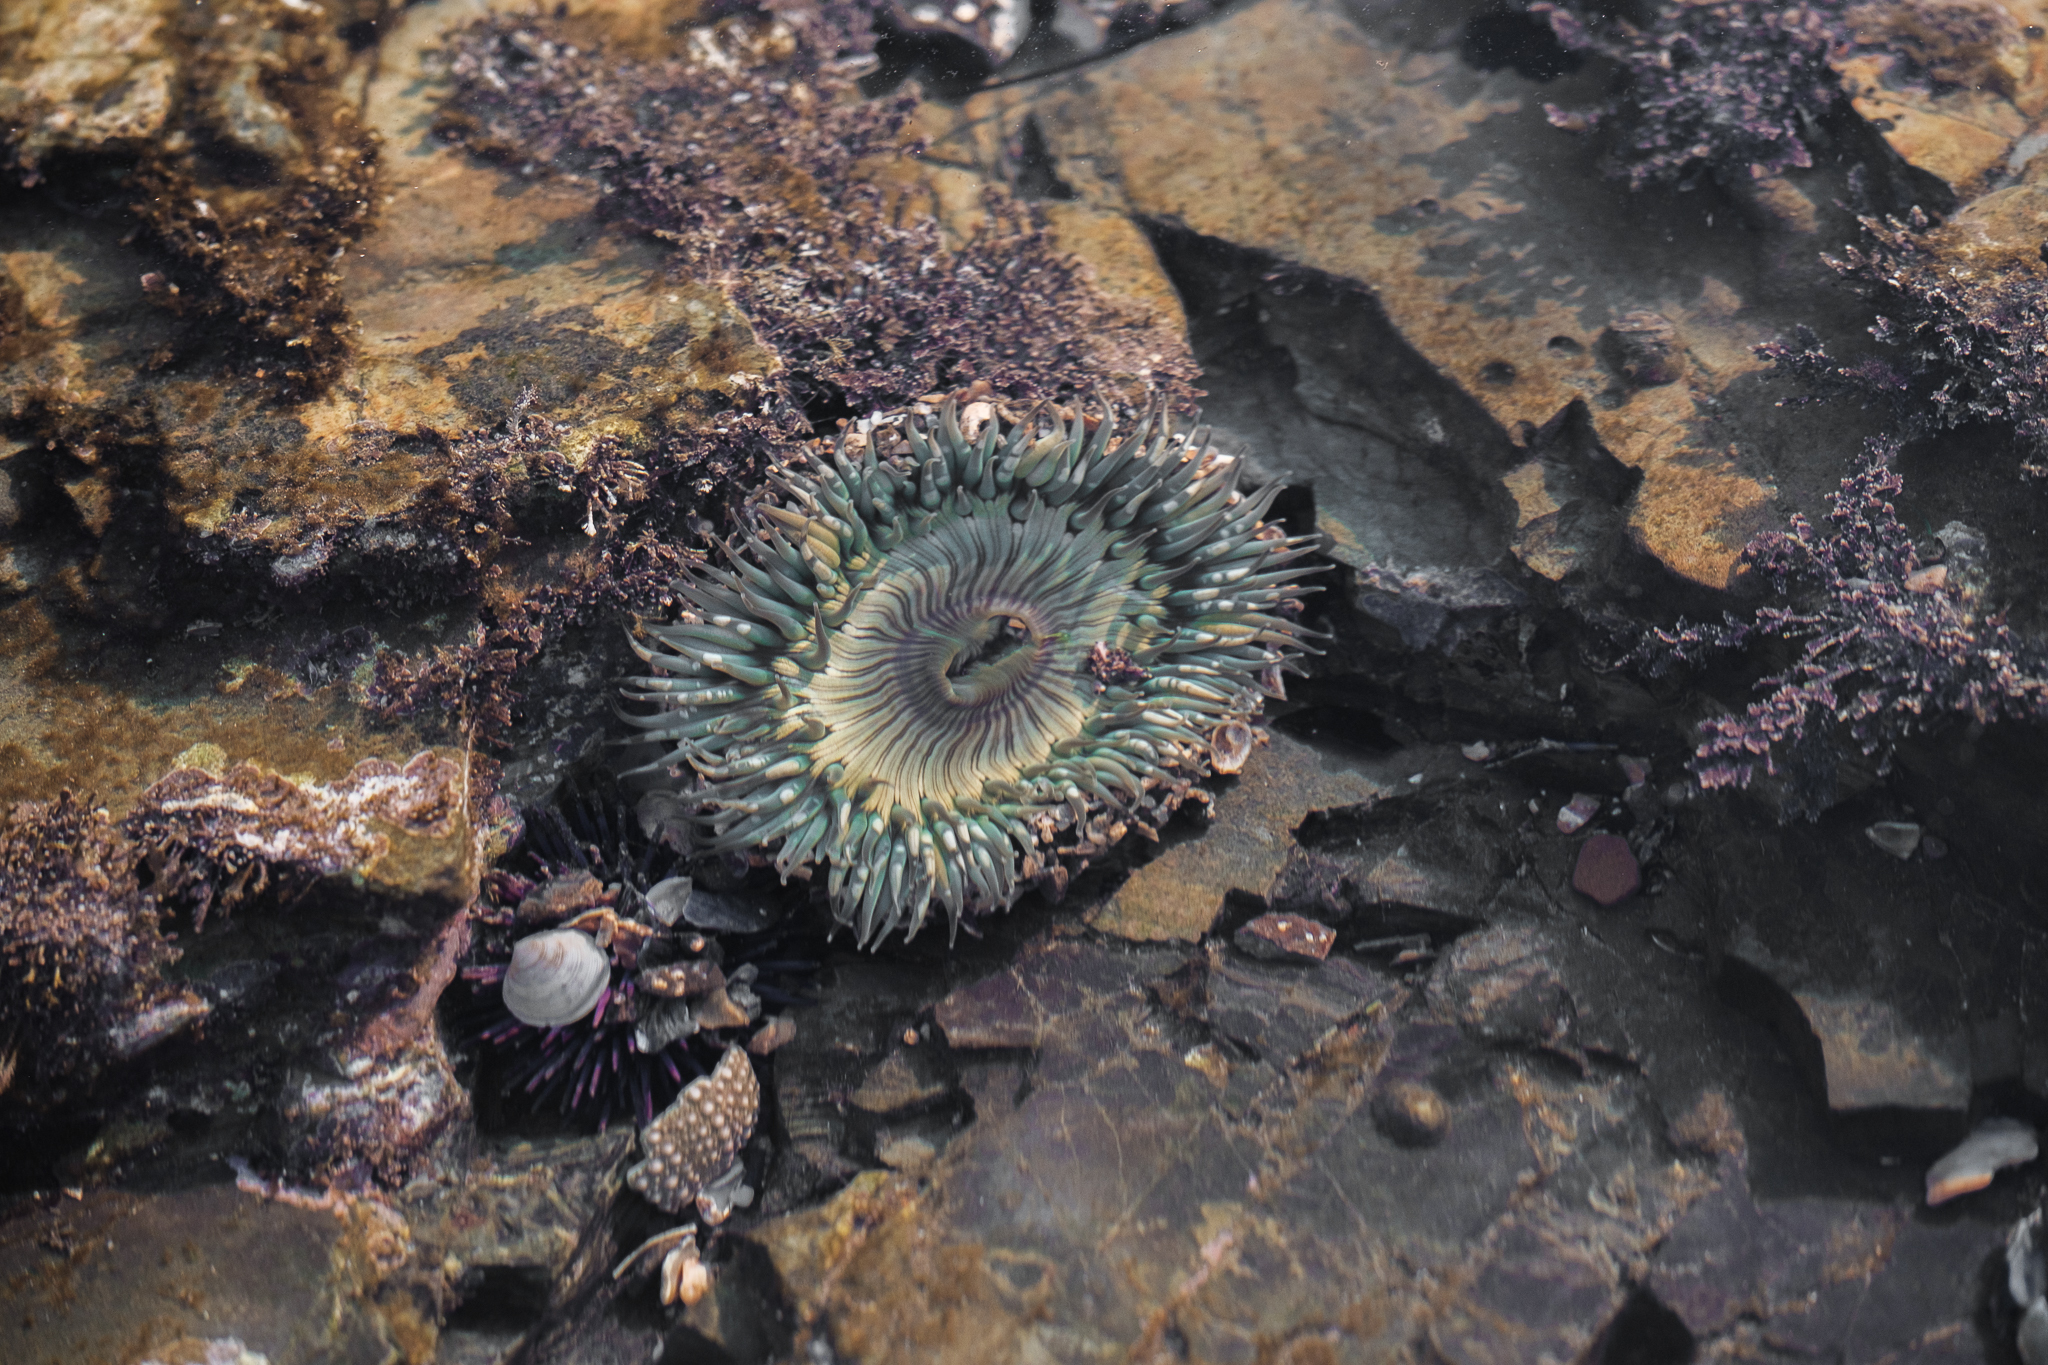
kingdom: Animalia
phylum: Cnidaria
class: Anthozoa
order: Actiniaria
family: Actiniidae
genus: Anthopleura
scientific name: Anthopleura sola
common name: Sun anemone
